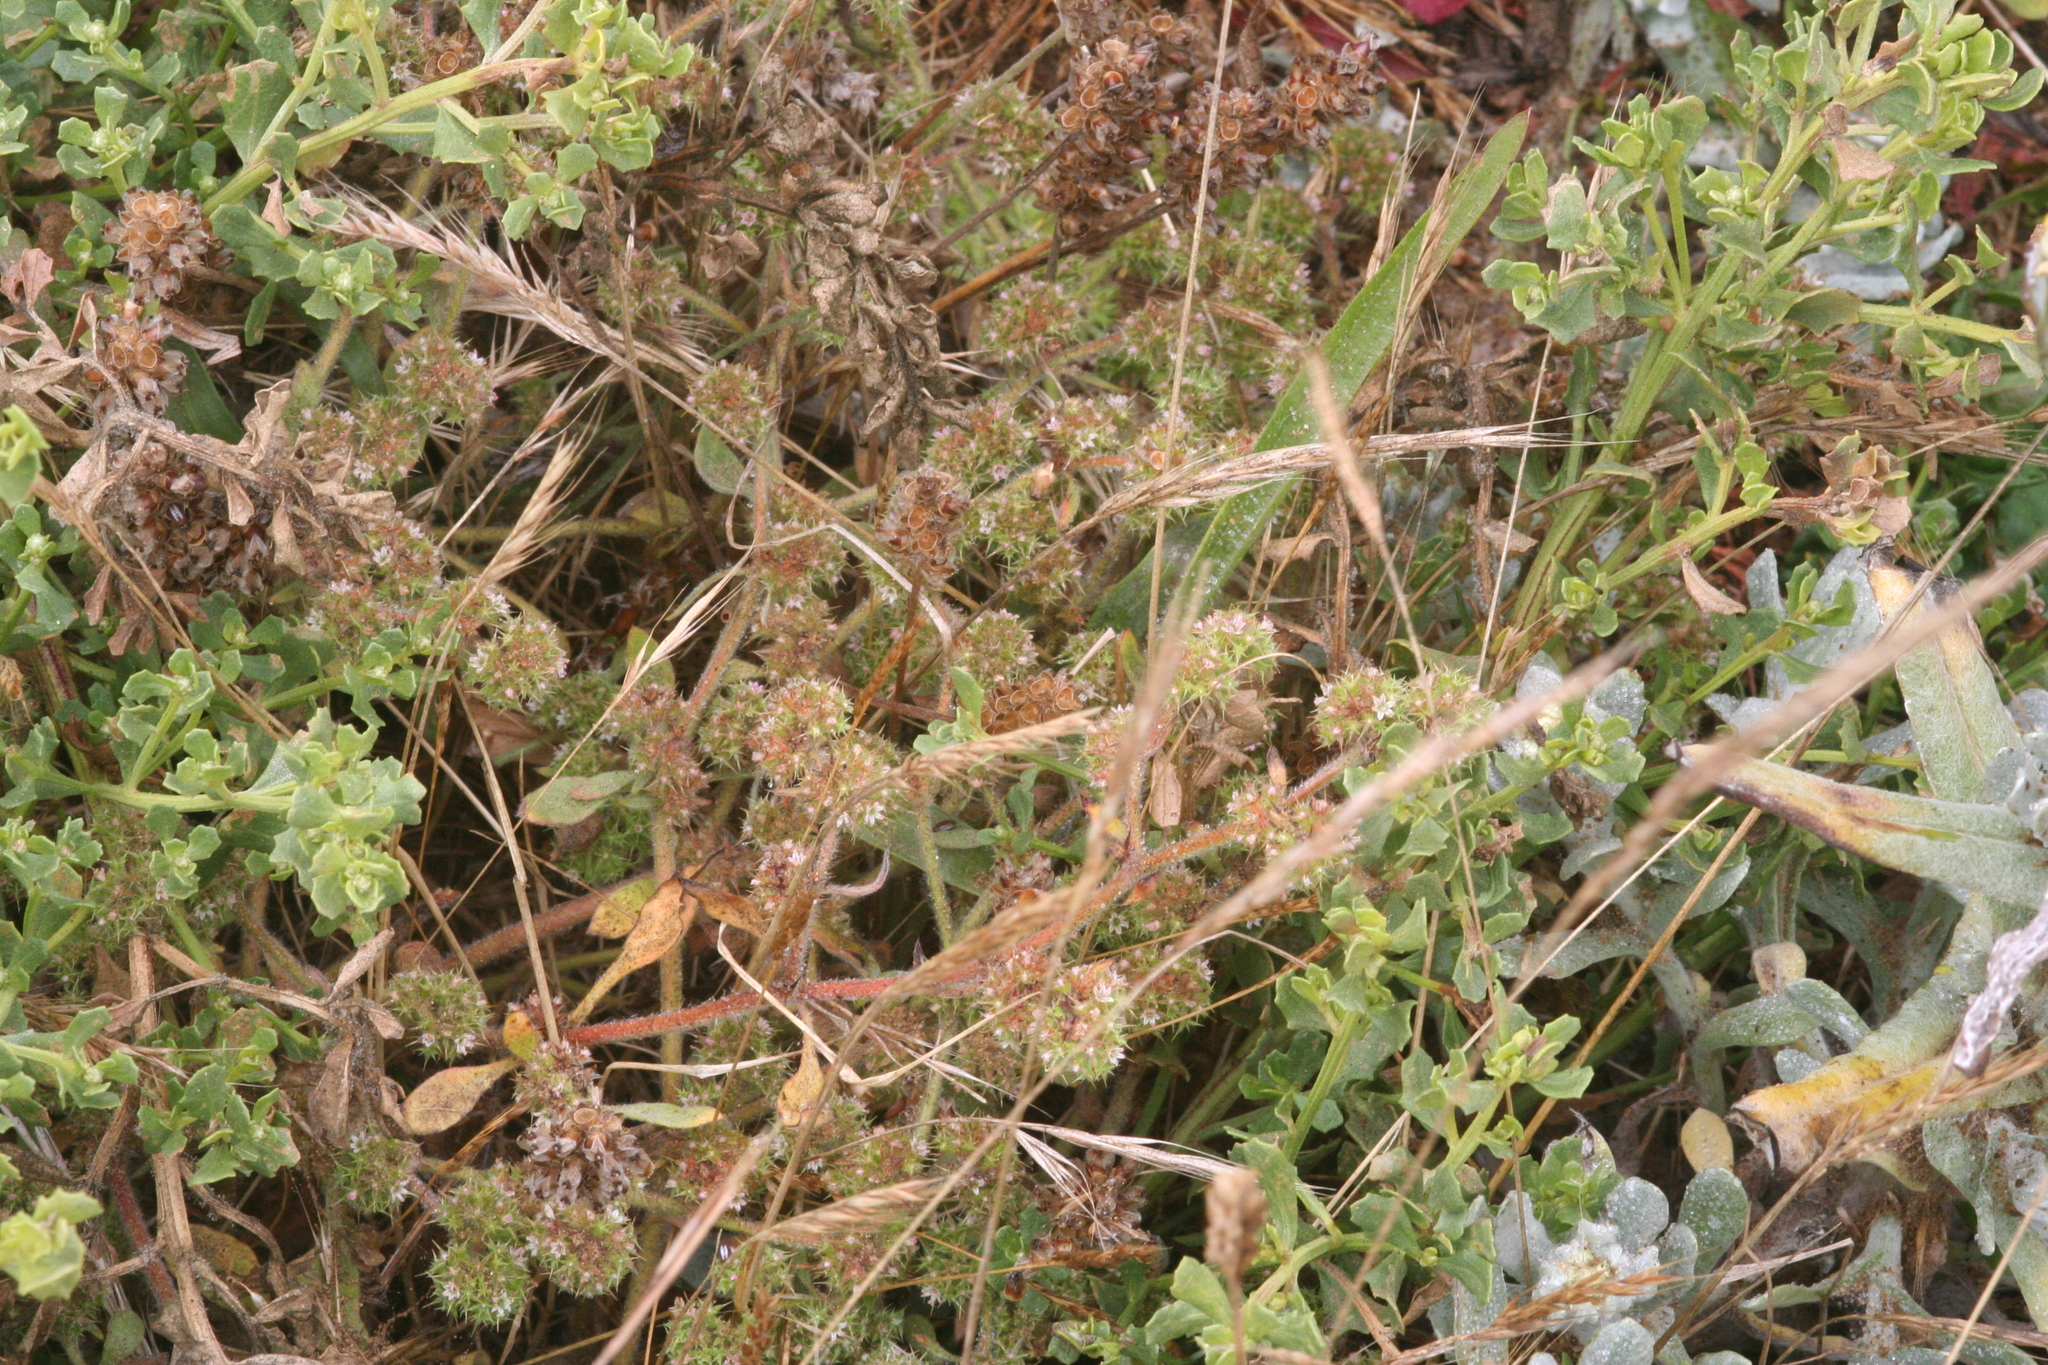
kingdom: Plantae
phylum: Tracheophyta
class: Magnoliopsida
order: Caryophyllales
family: Polygonaceae
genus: Chorizanthe
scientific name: Chorizanthe cuspidata
